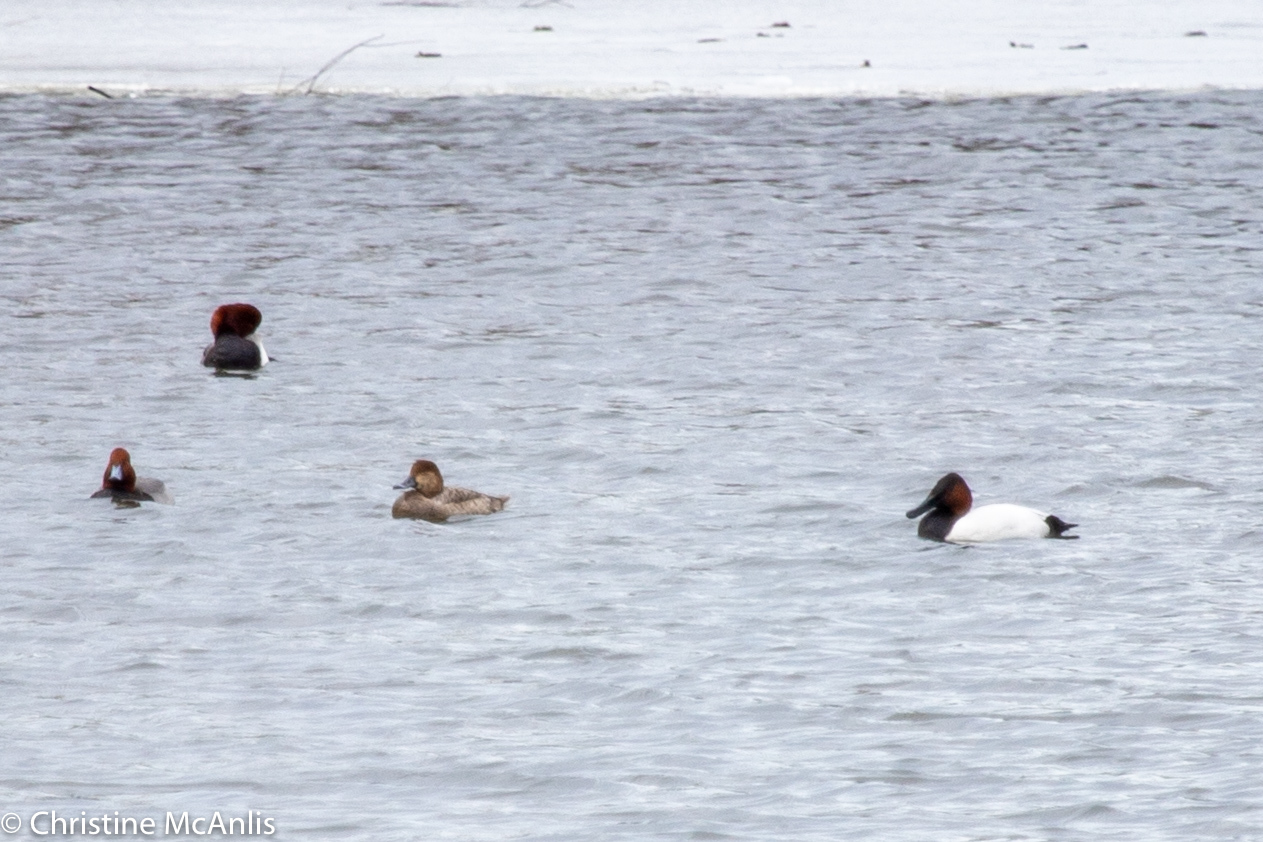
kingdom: Animalia
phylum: Chordata
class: Aves
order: Anseriformes
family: Anatidae
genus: Aythya
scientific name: Aythya valisineria
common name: Canvasback
